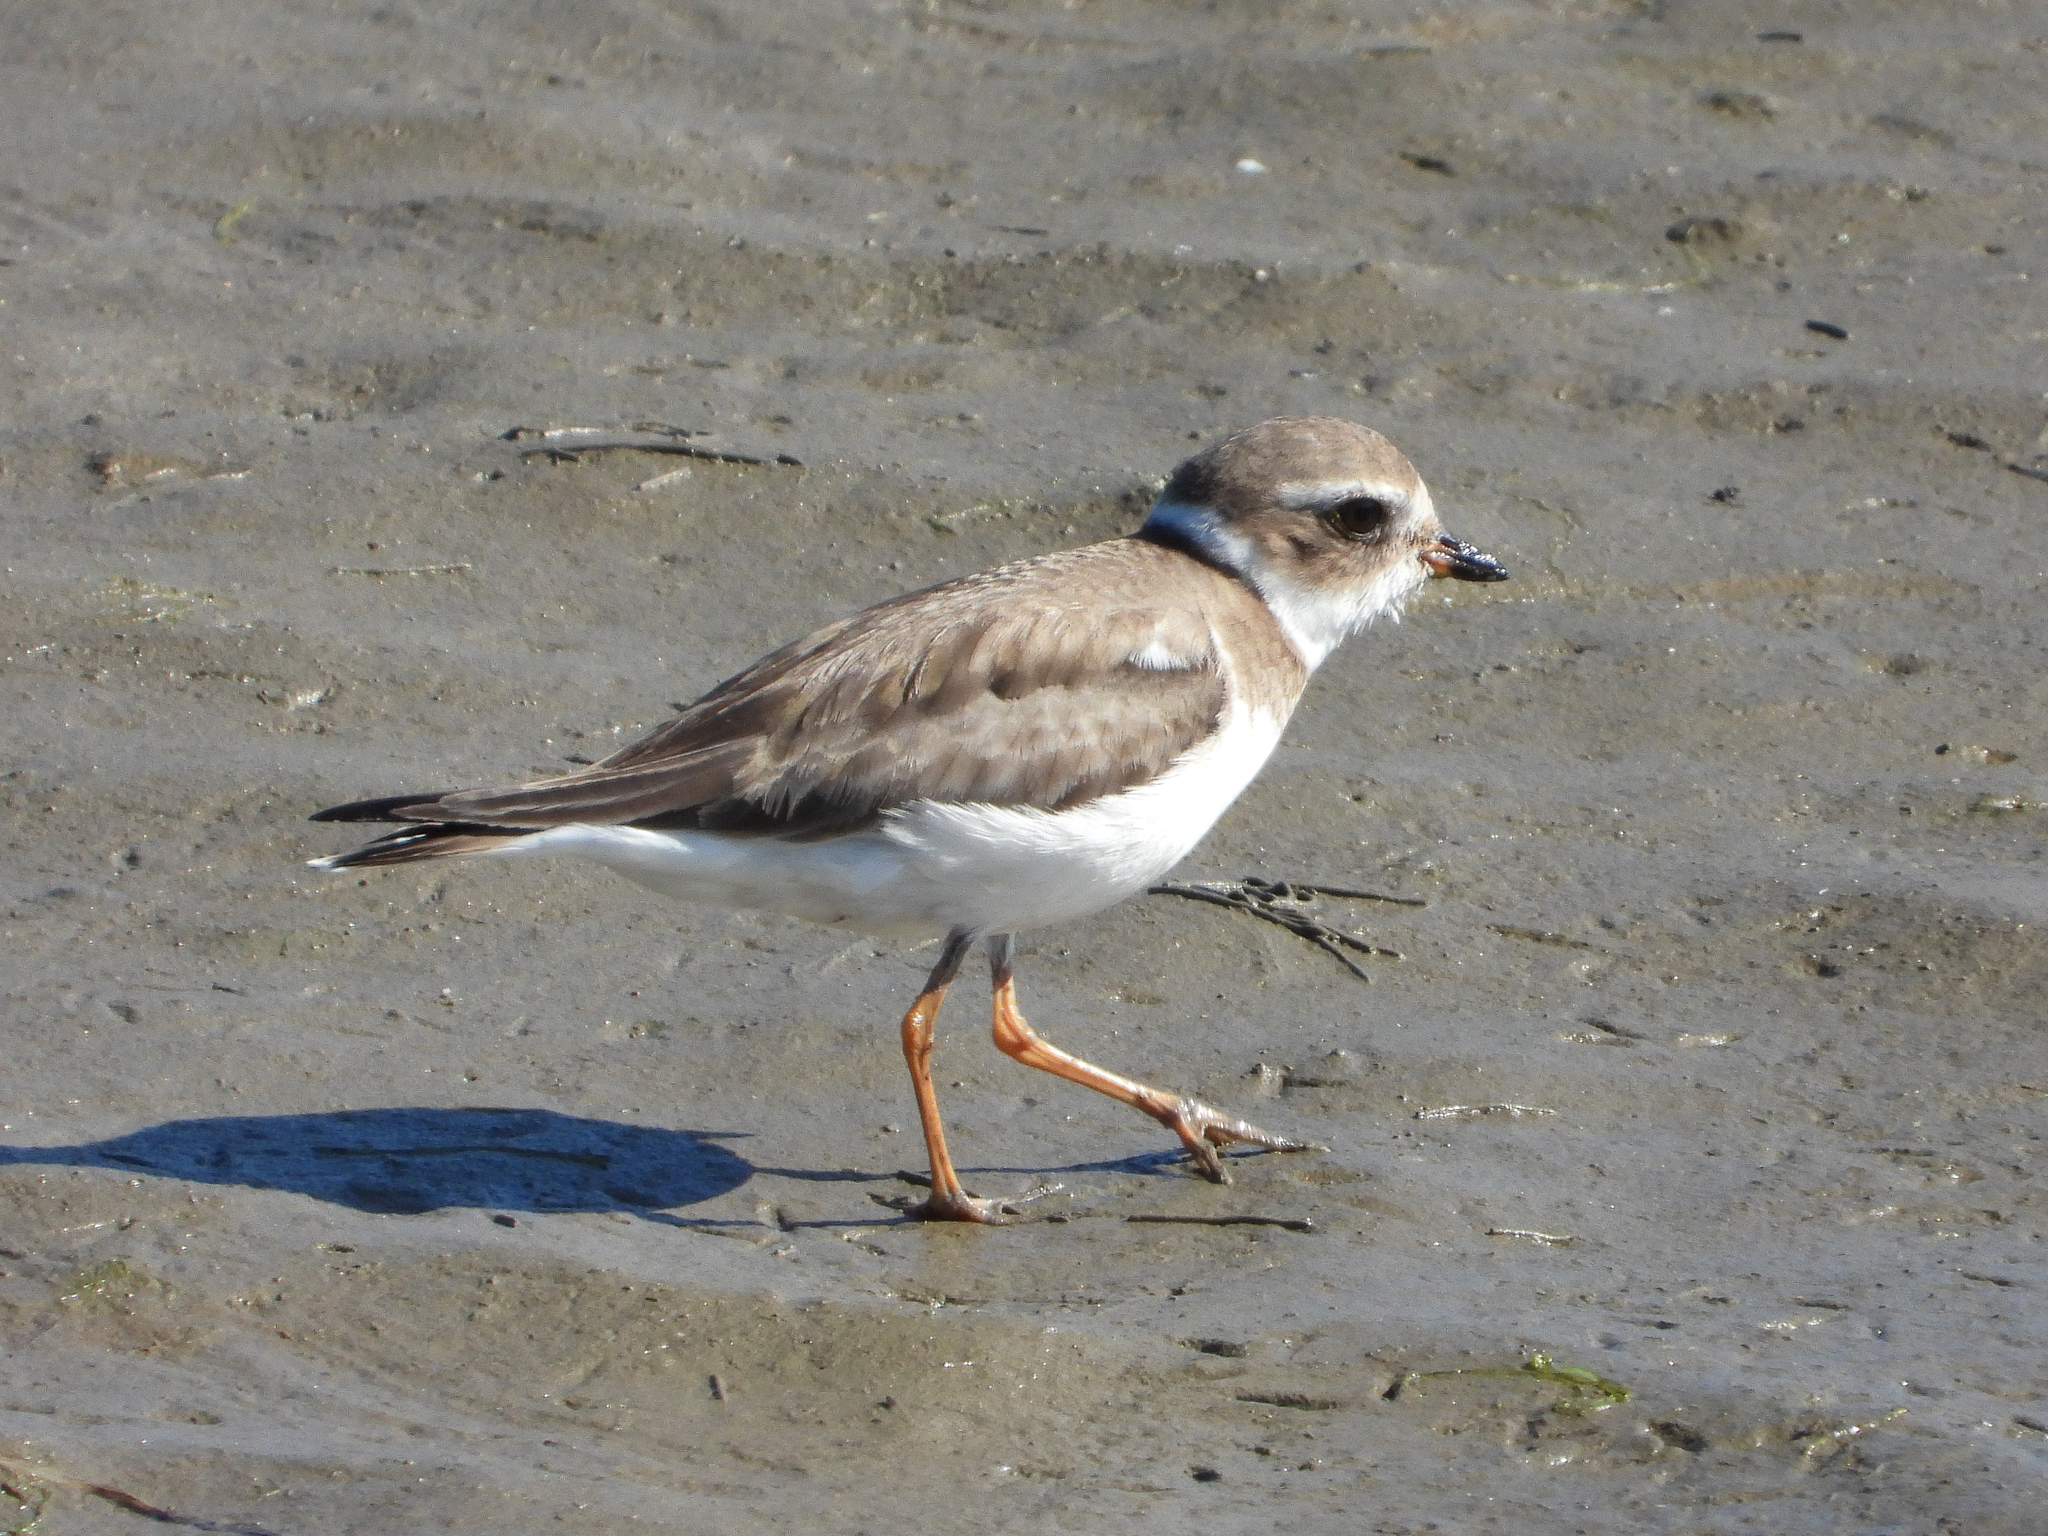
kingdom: Animalia
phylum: Chordata
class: Aves
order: Charadriiformes
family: Charadriidae
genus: Charadrius
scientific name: Charadrius semipalmatus
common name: Semipalmated plover
